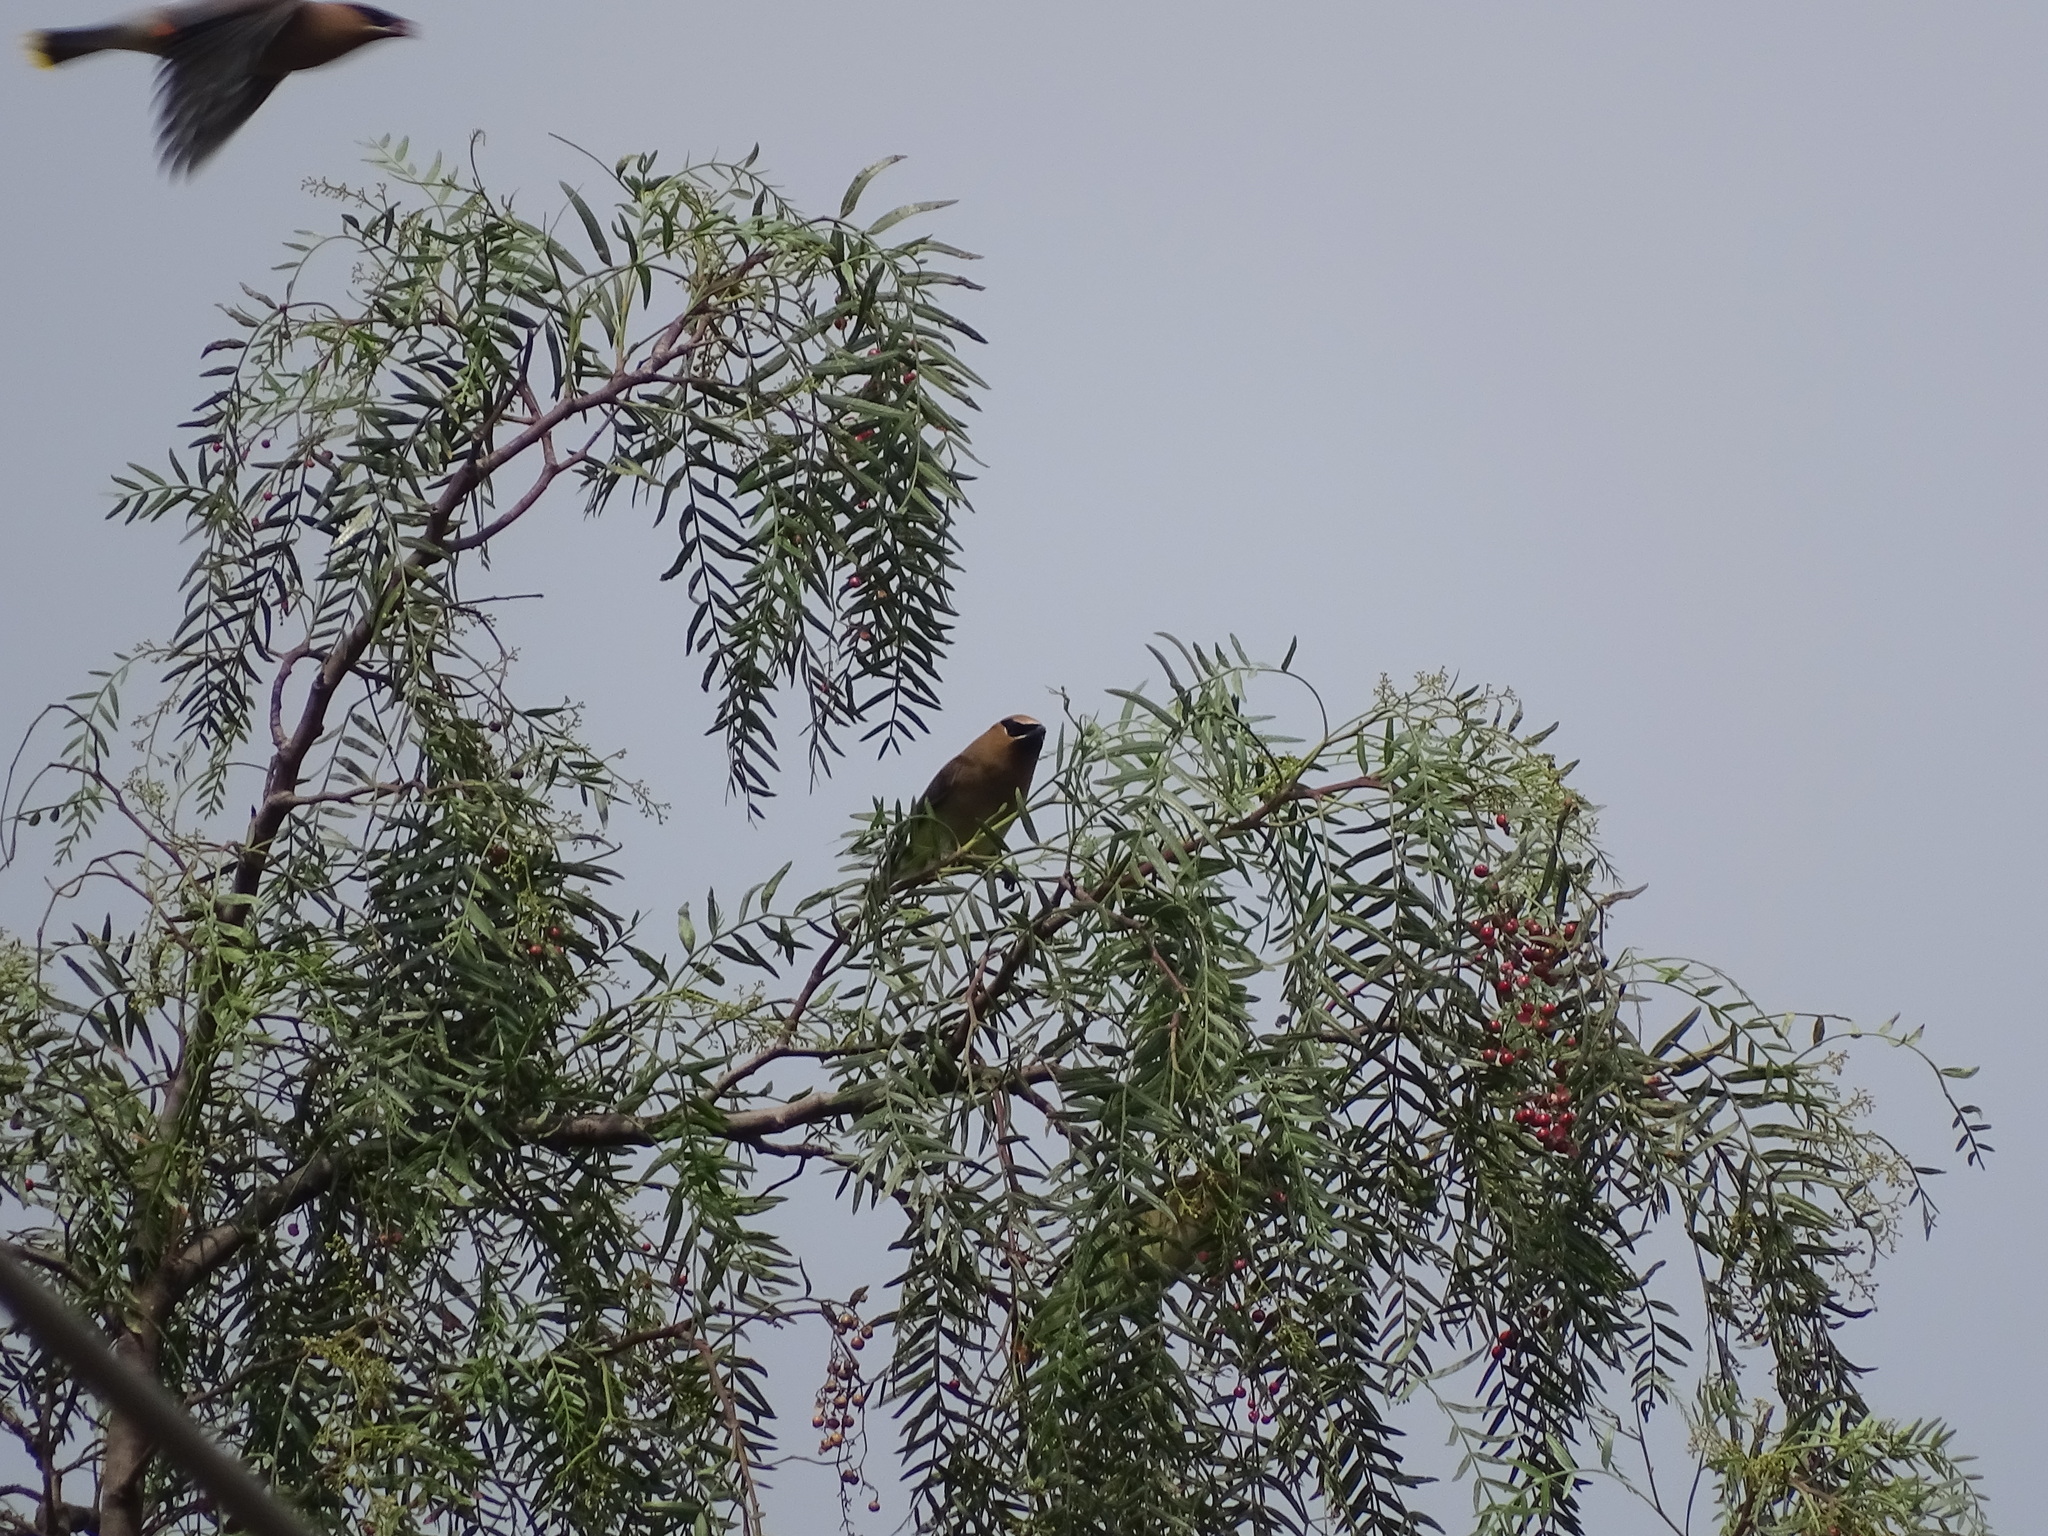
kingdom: Animalia
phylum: Chordata
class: Aves
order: Passeriformes
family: Bombycillidae
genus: Bombycilla
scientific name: Bombycilla cedrorum
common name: Cedar waxwing
